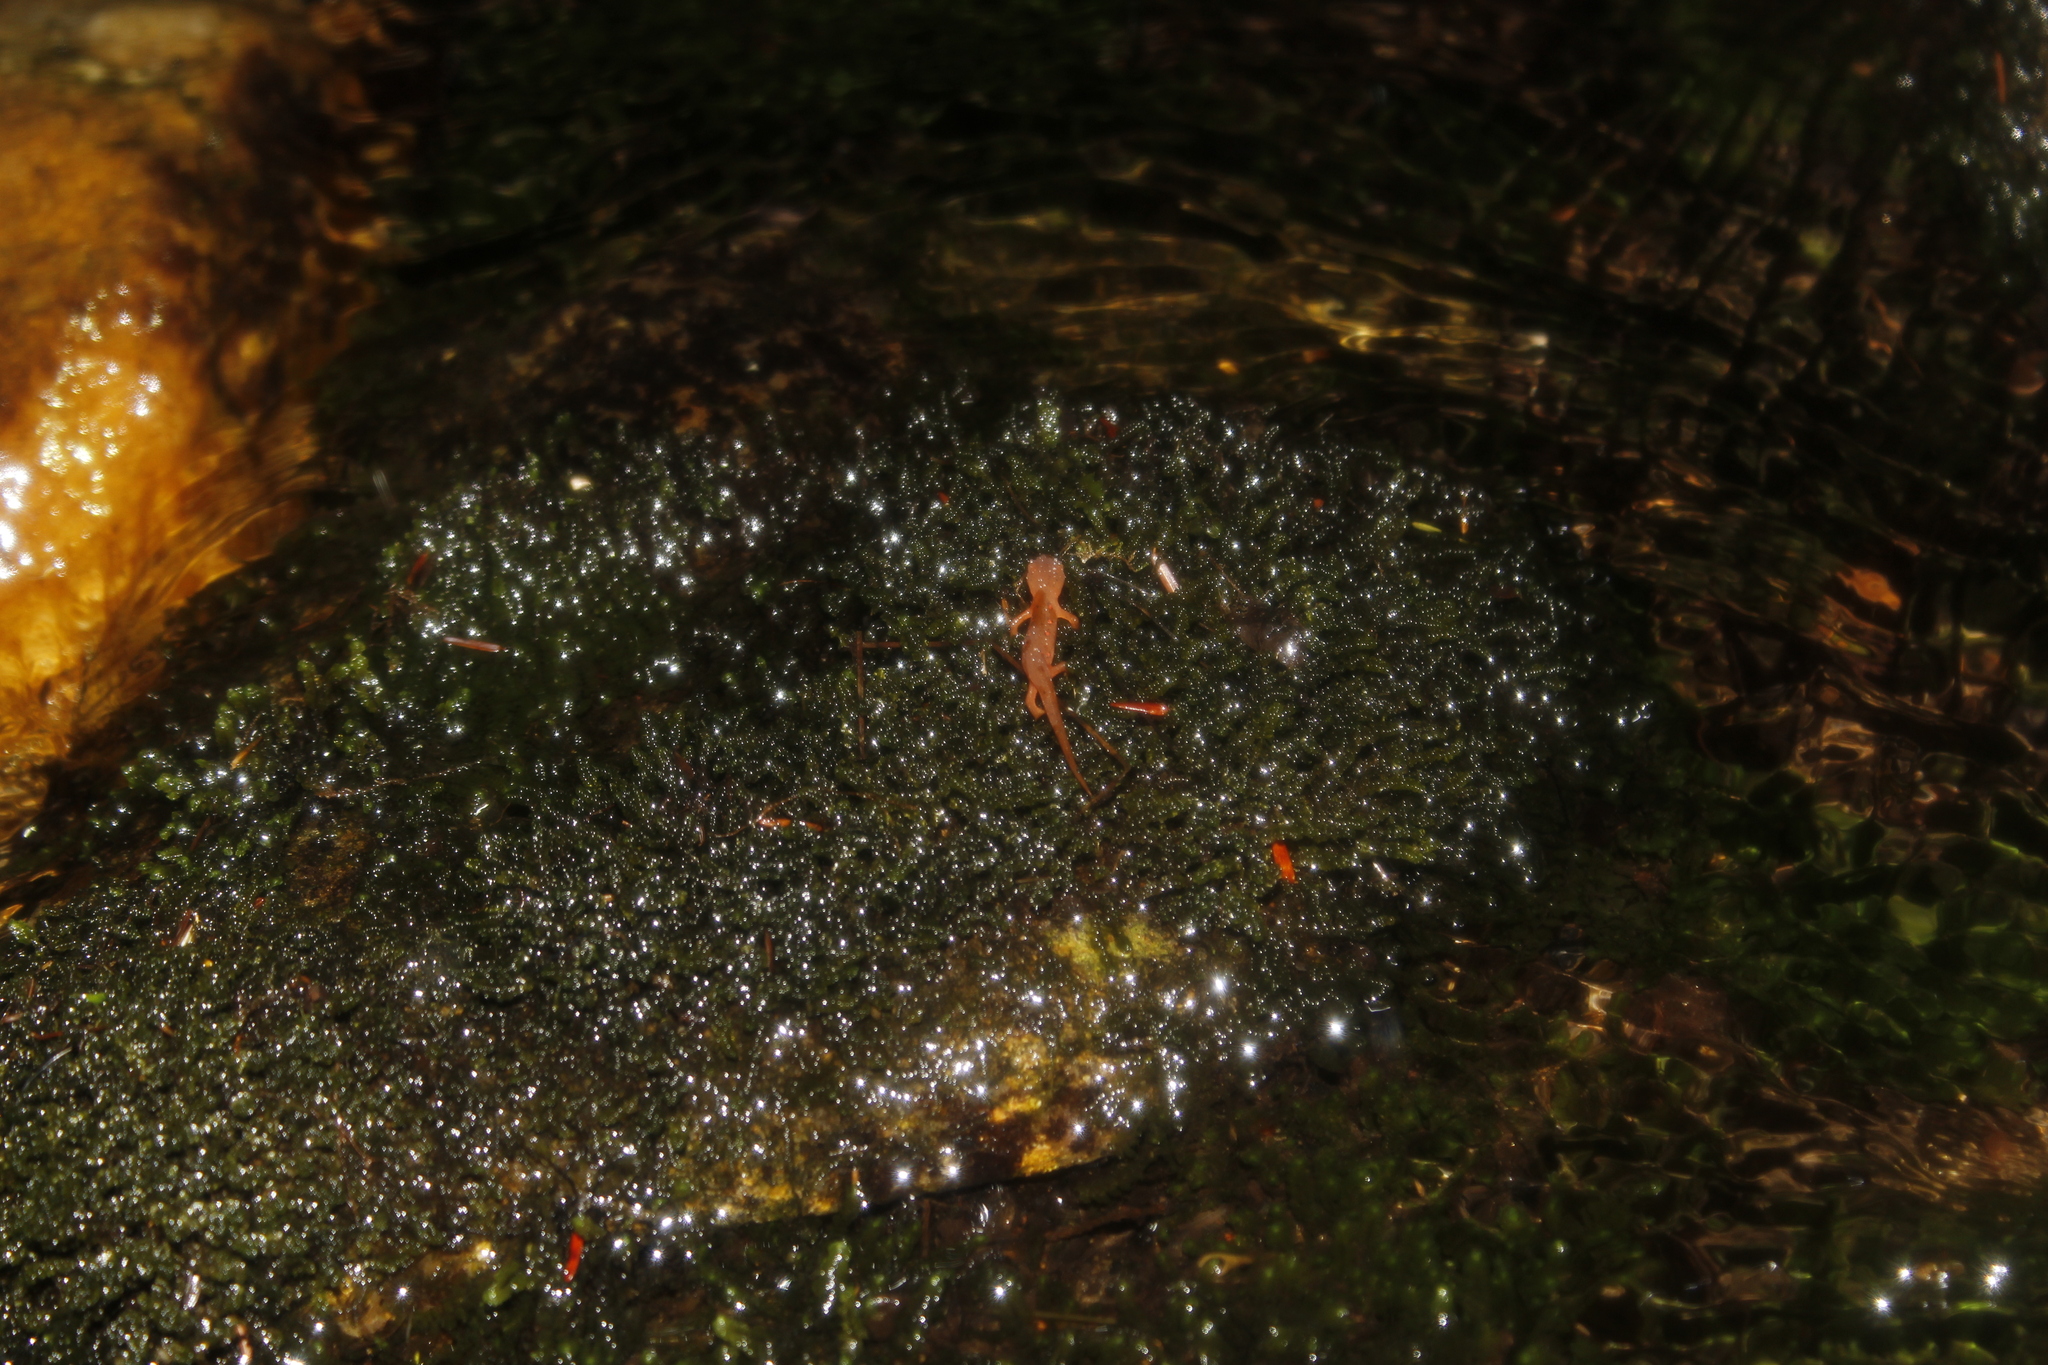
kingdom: Animalia
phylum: Chordata
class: Amphibia
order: Caudata
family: Salamandridae
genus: Notophthalmus
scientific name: Notophthalmus viridescens
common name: Eastern newt
